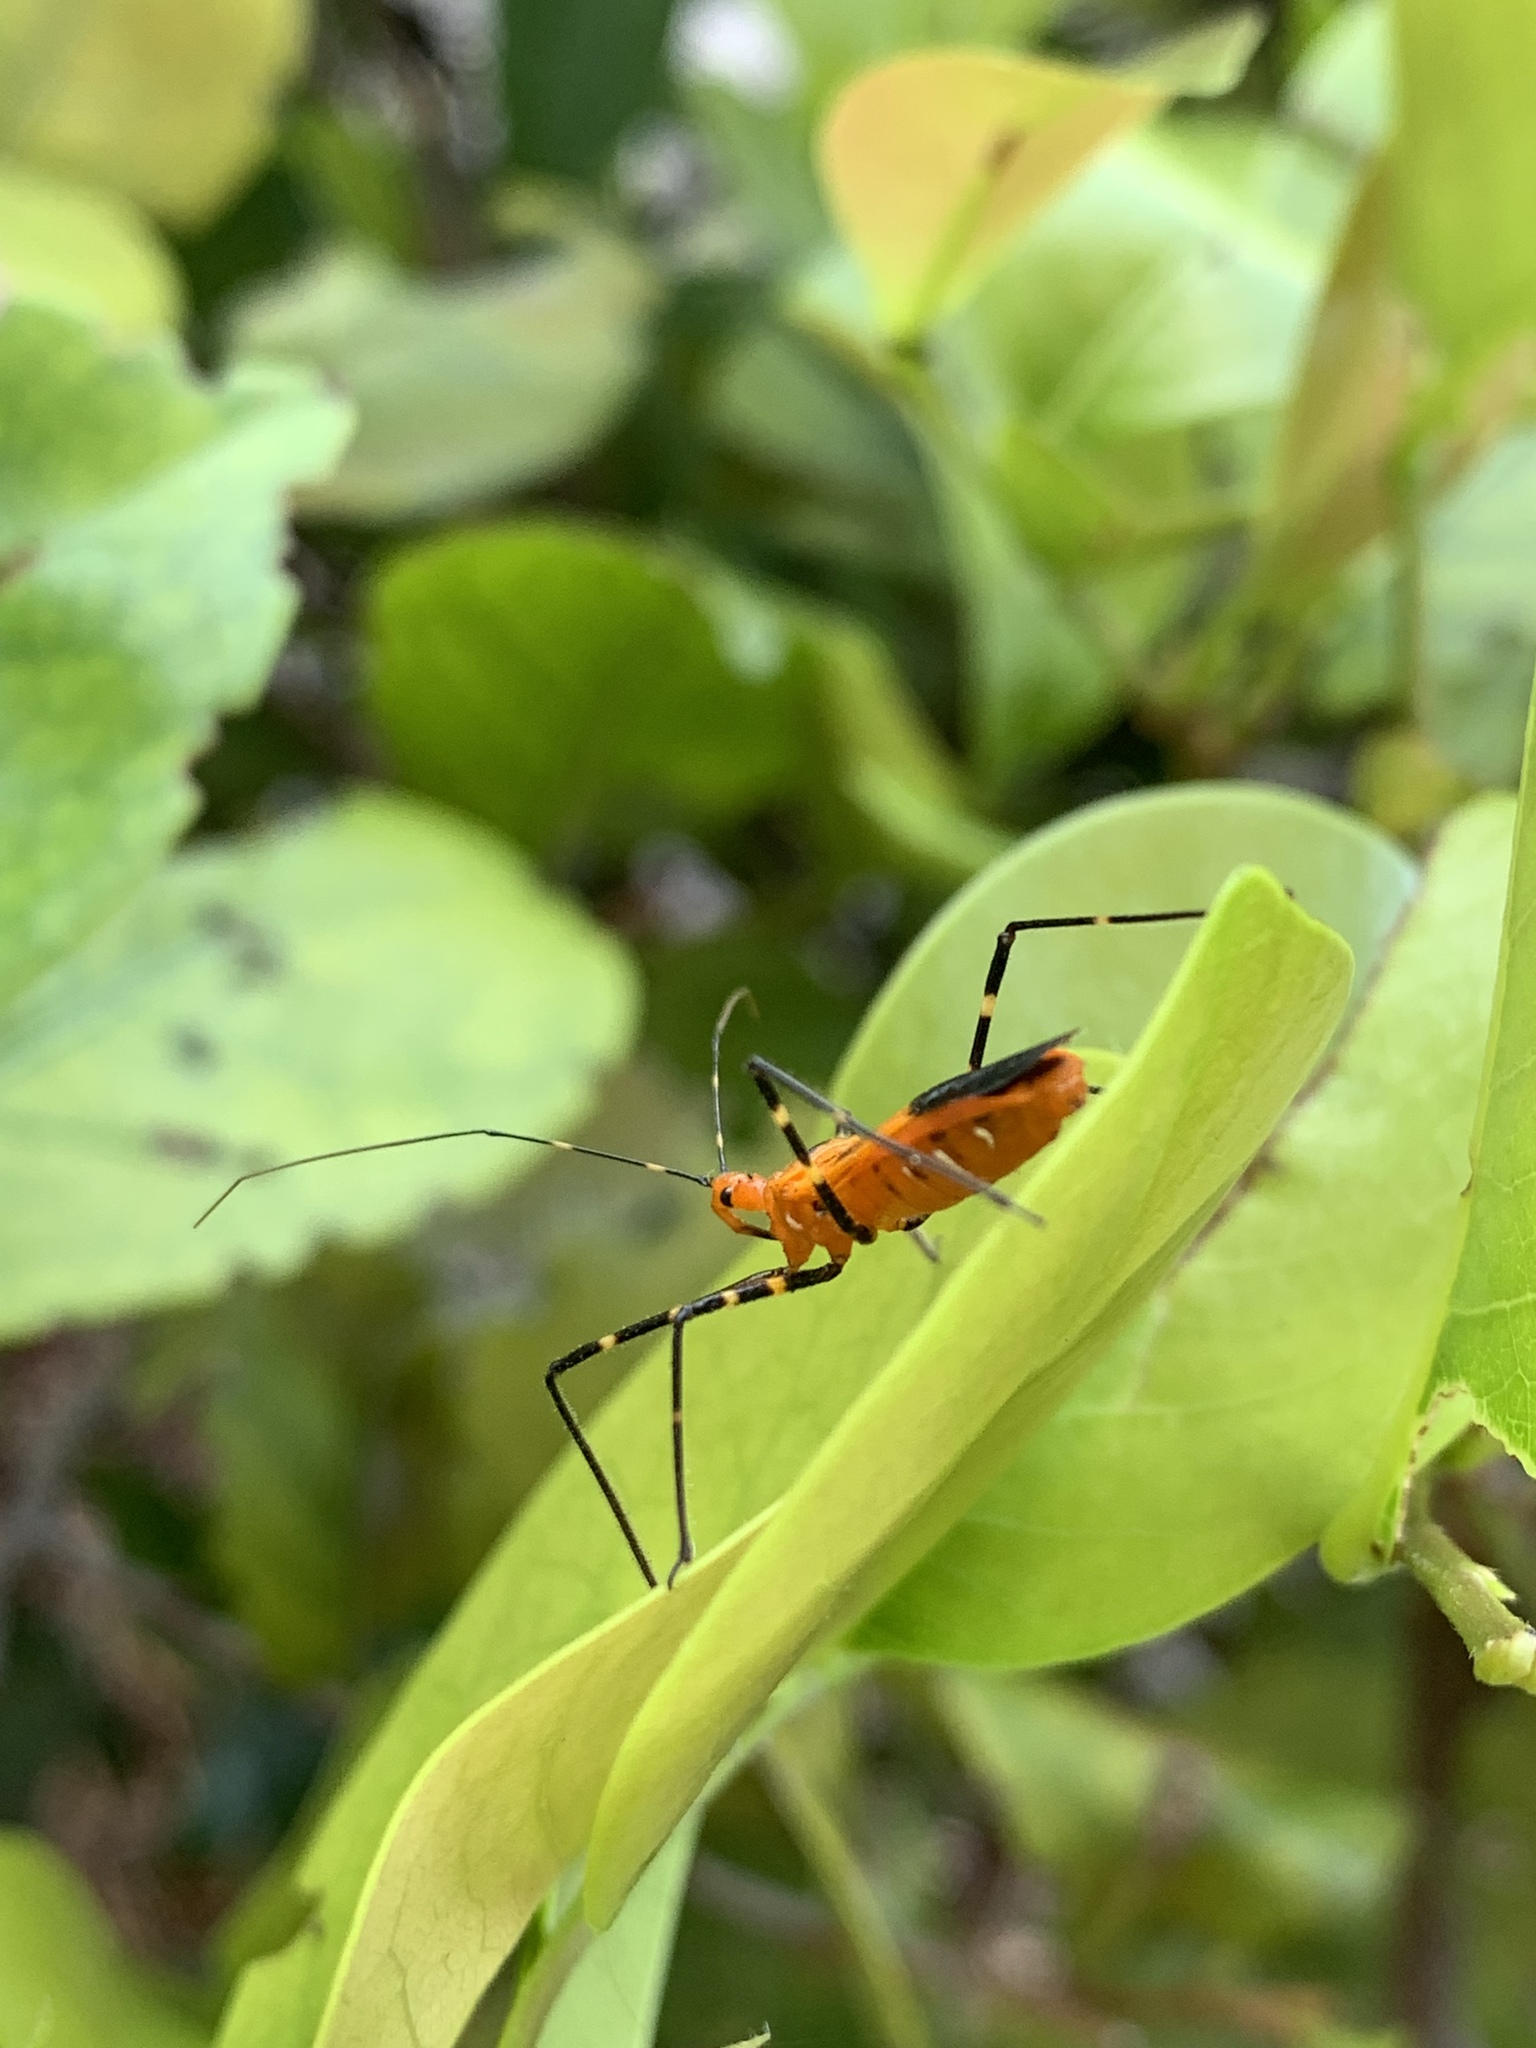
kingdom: Animalia
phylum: Arthropoda
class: Insecta
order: Hemiptera
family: Reduviidae
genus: Zelus
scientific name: Zelus longipes
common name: Milkweed assassin bug
